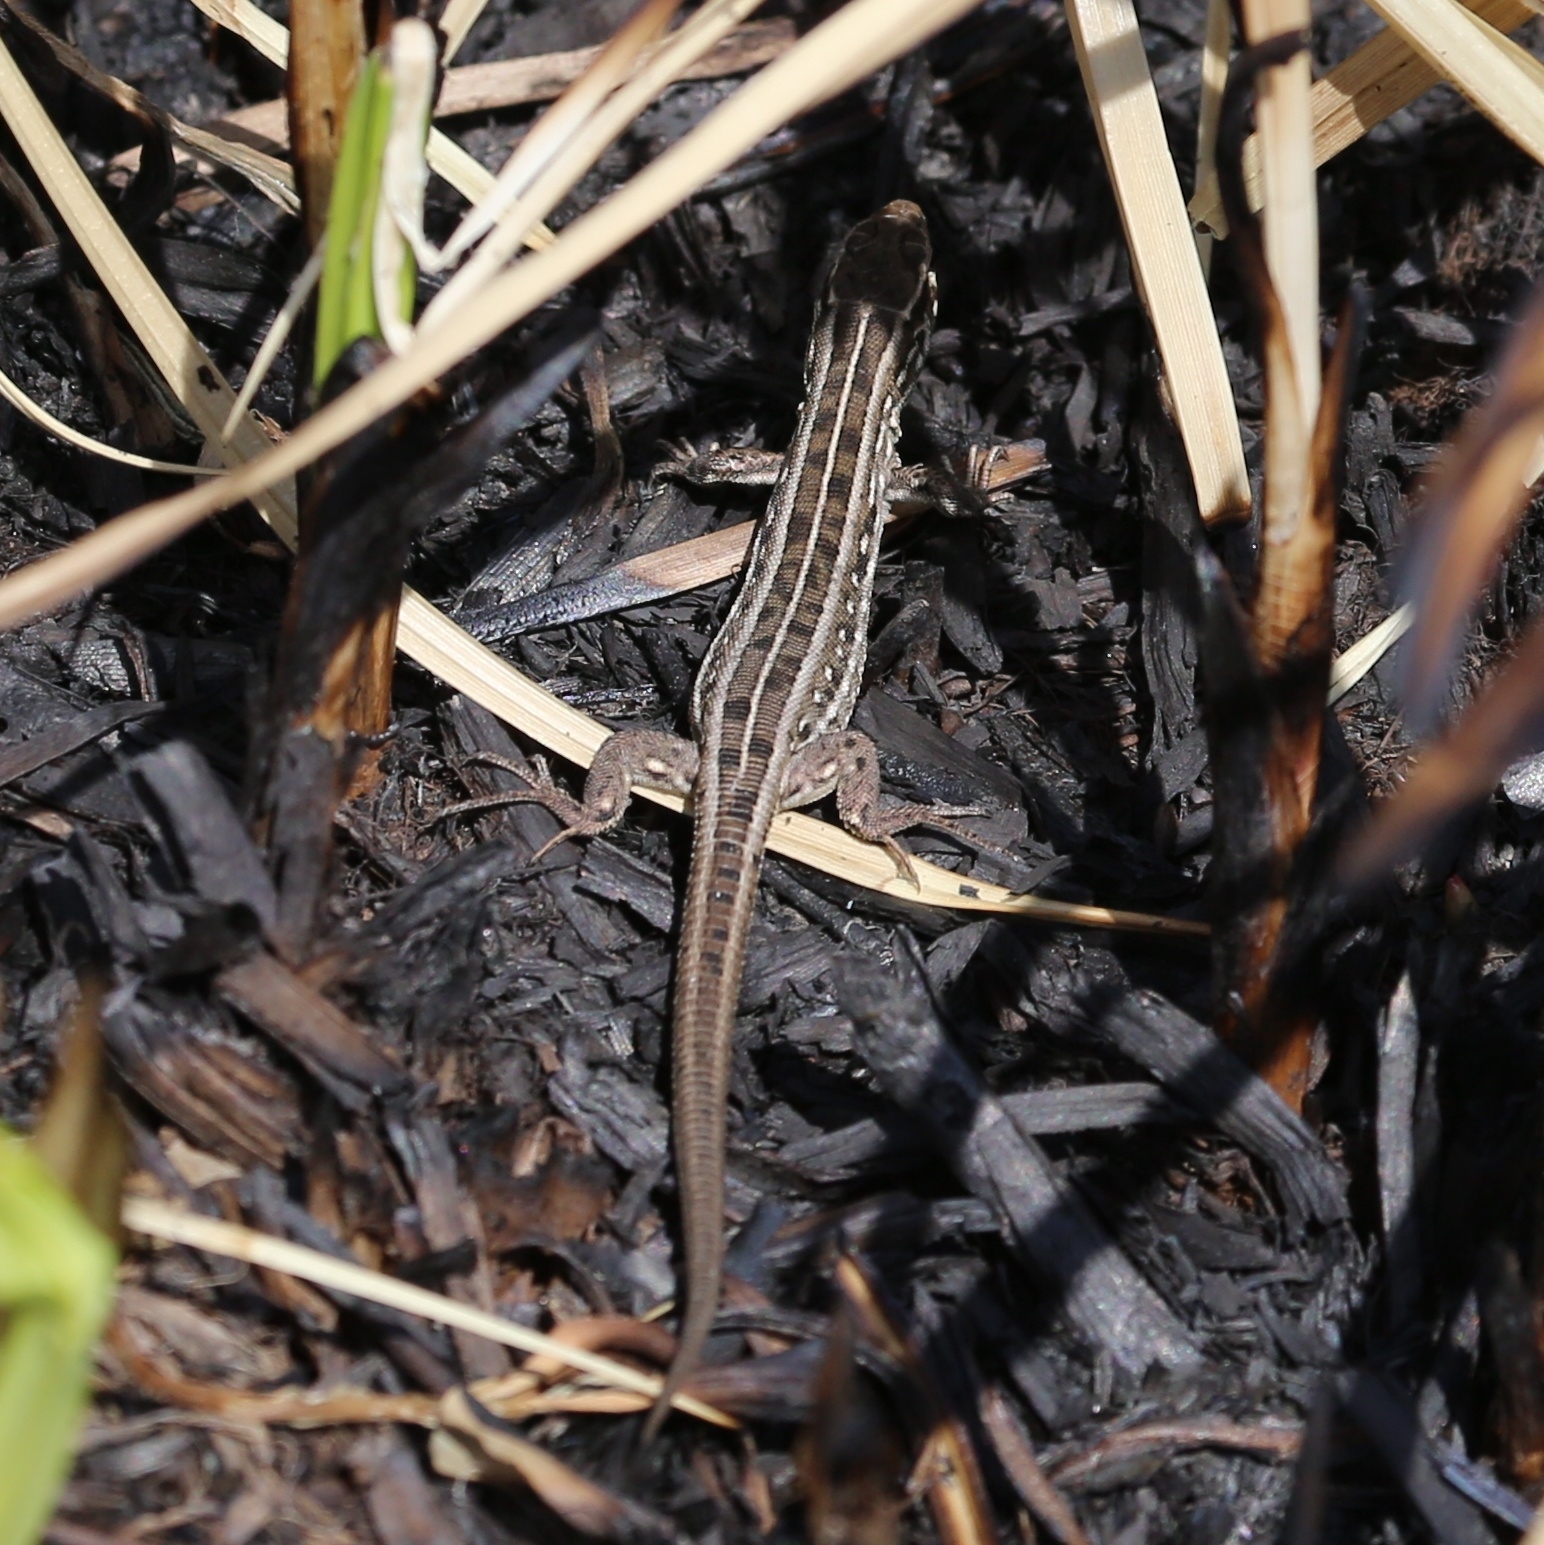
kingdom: Animalia
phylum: Chordata
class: Squamata
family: Lacertidae
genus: Lacerta
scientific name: Lacerta agilis
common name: Sand lizard
